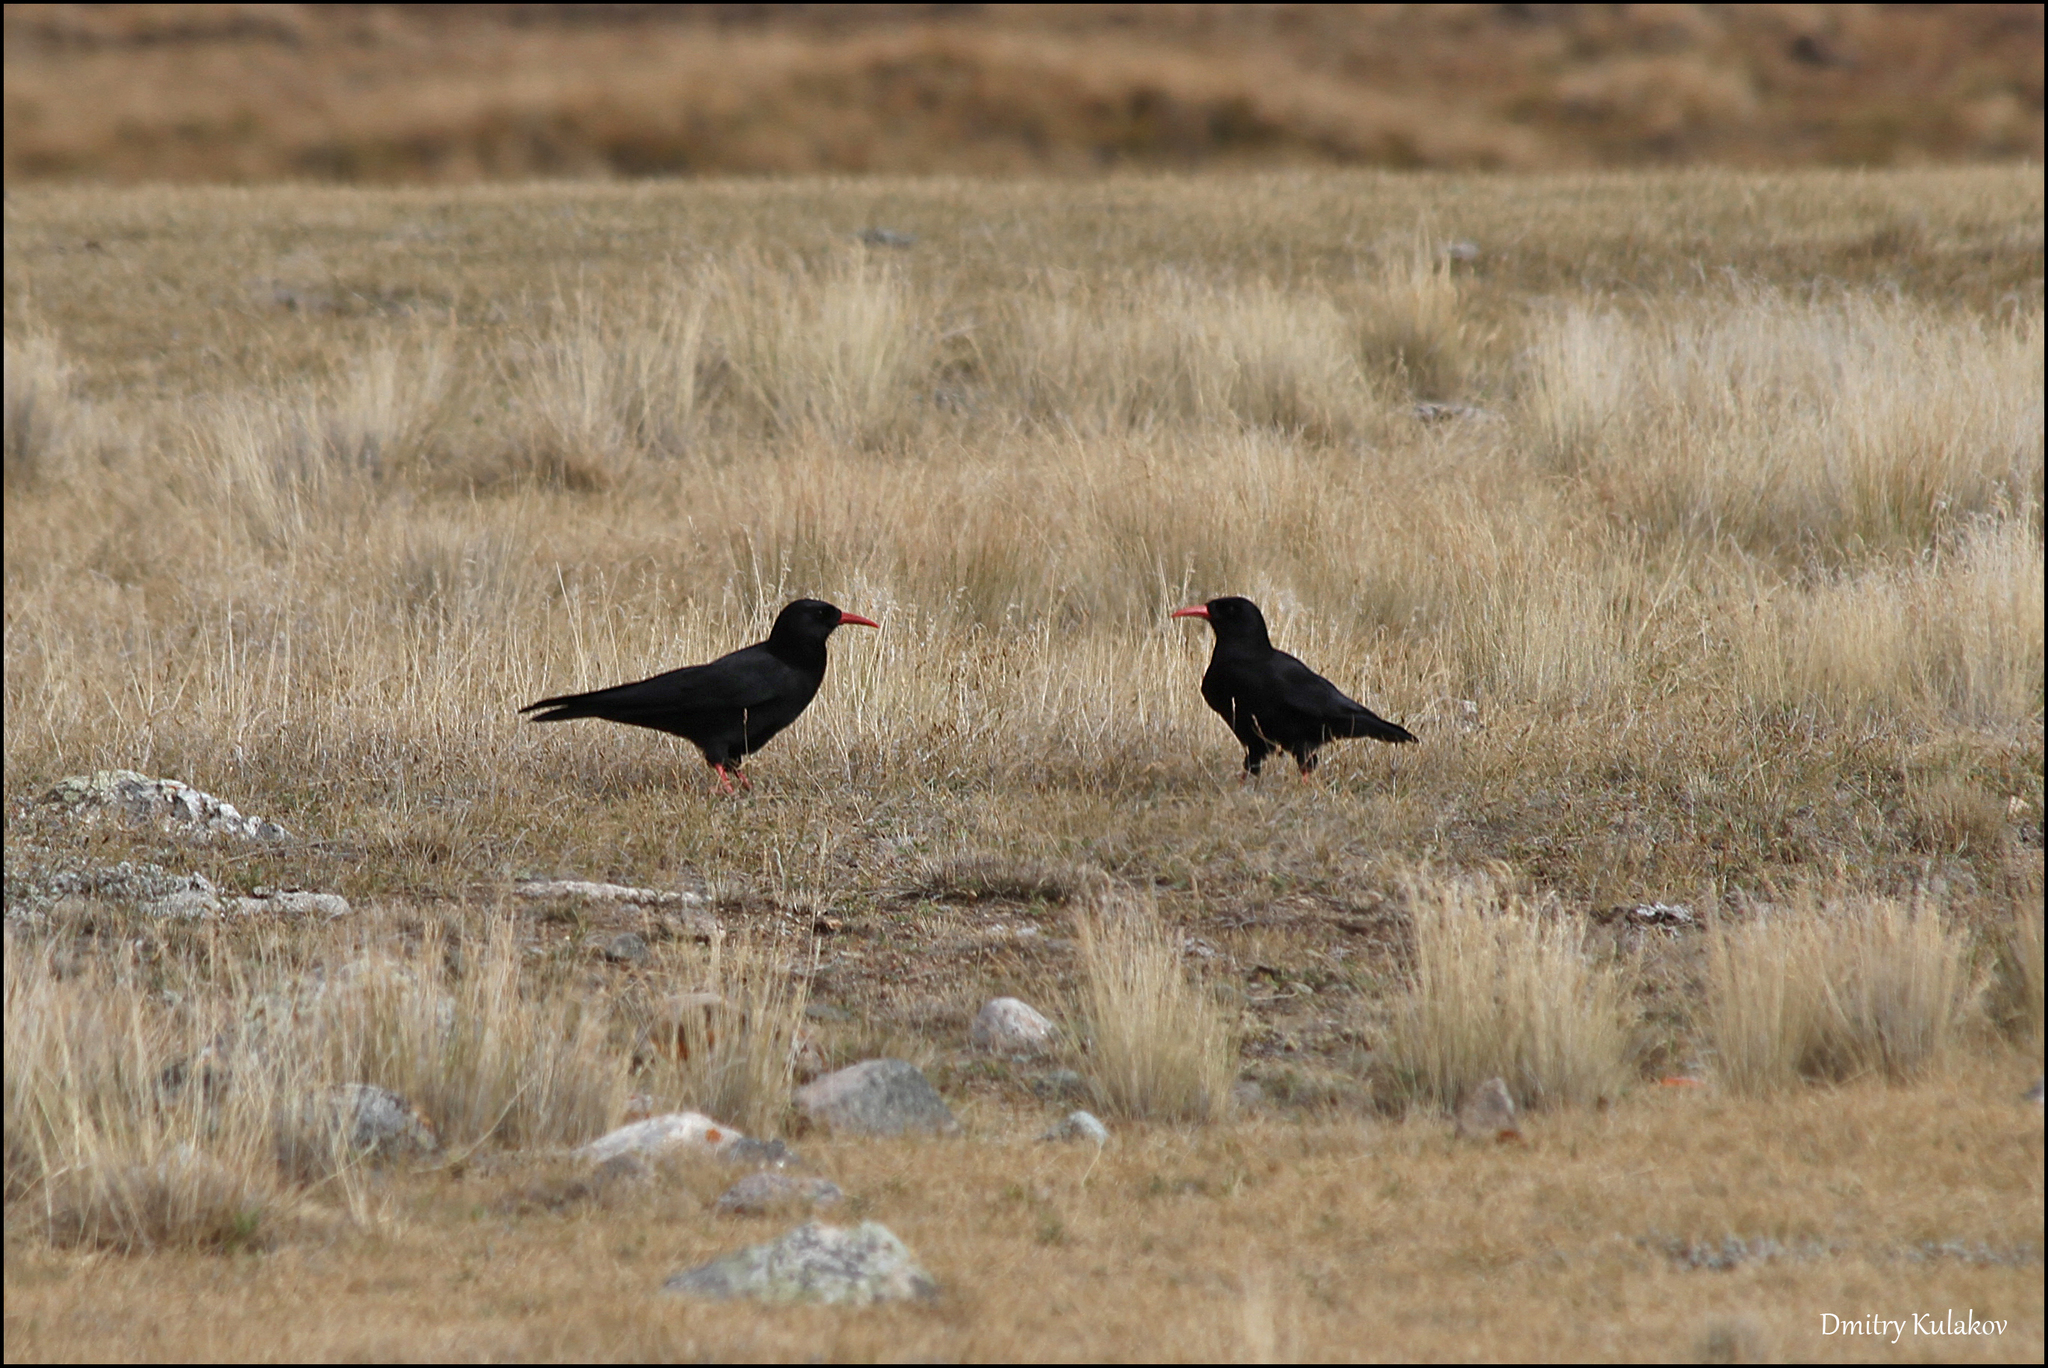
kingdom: Animalia
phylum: Chordata
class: Aves
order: Passeriformes
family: Corvidae
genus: Pyrrhocorax
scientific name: Pyrrhocorax pyrrhocorax
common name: Red-billed chough
